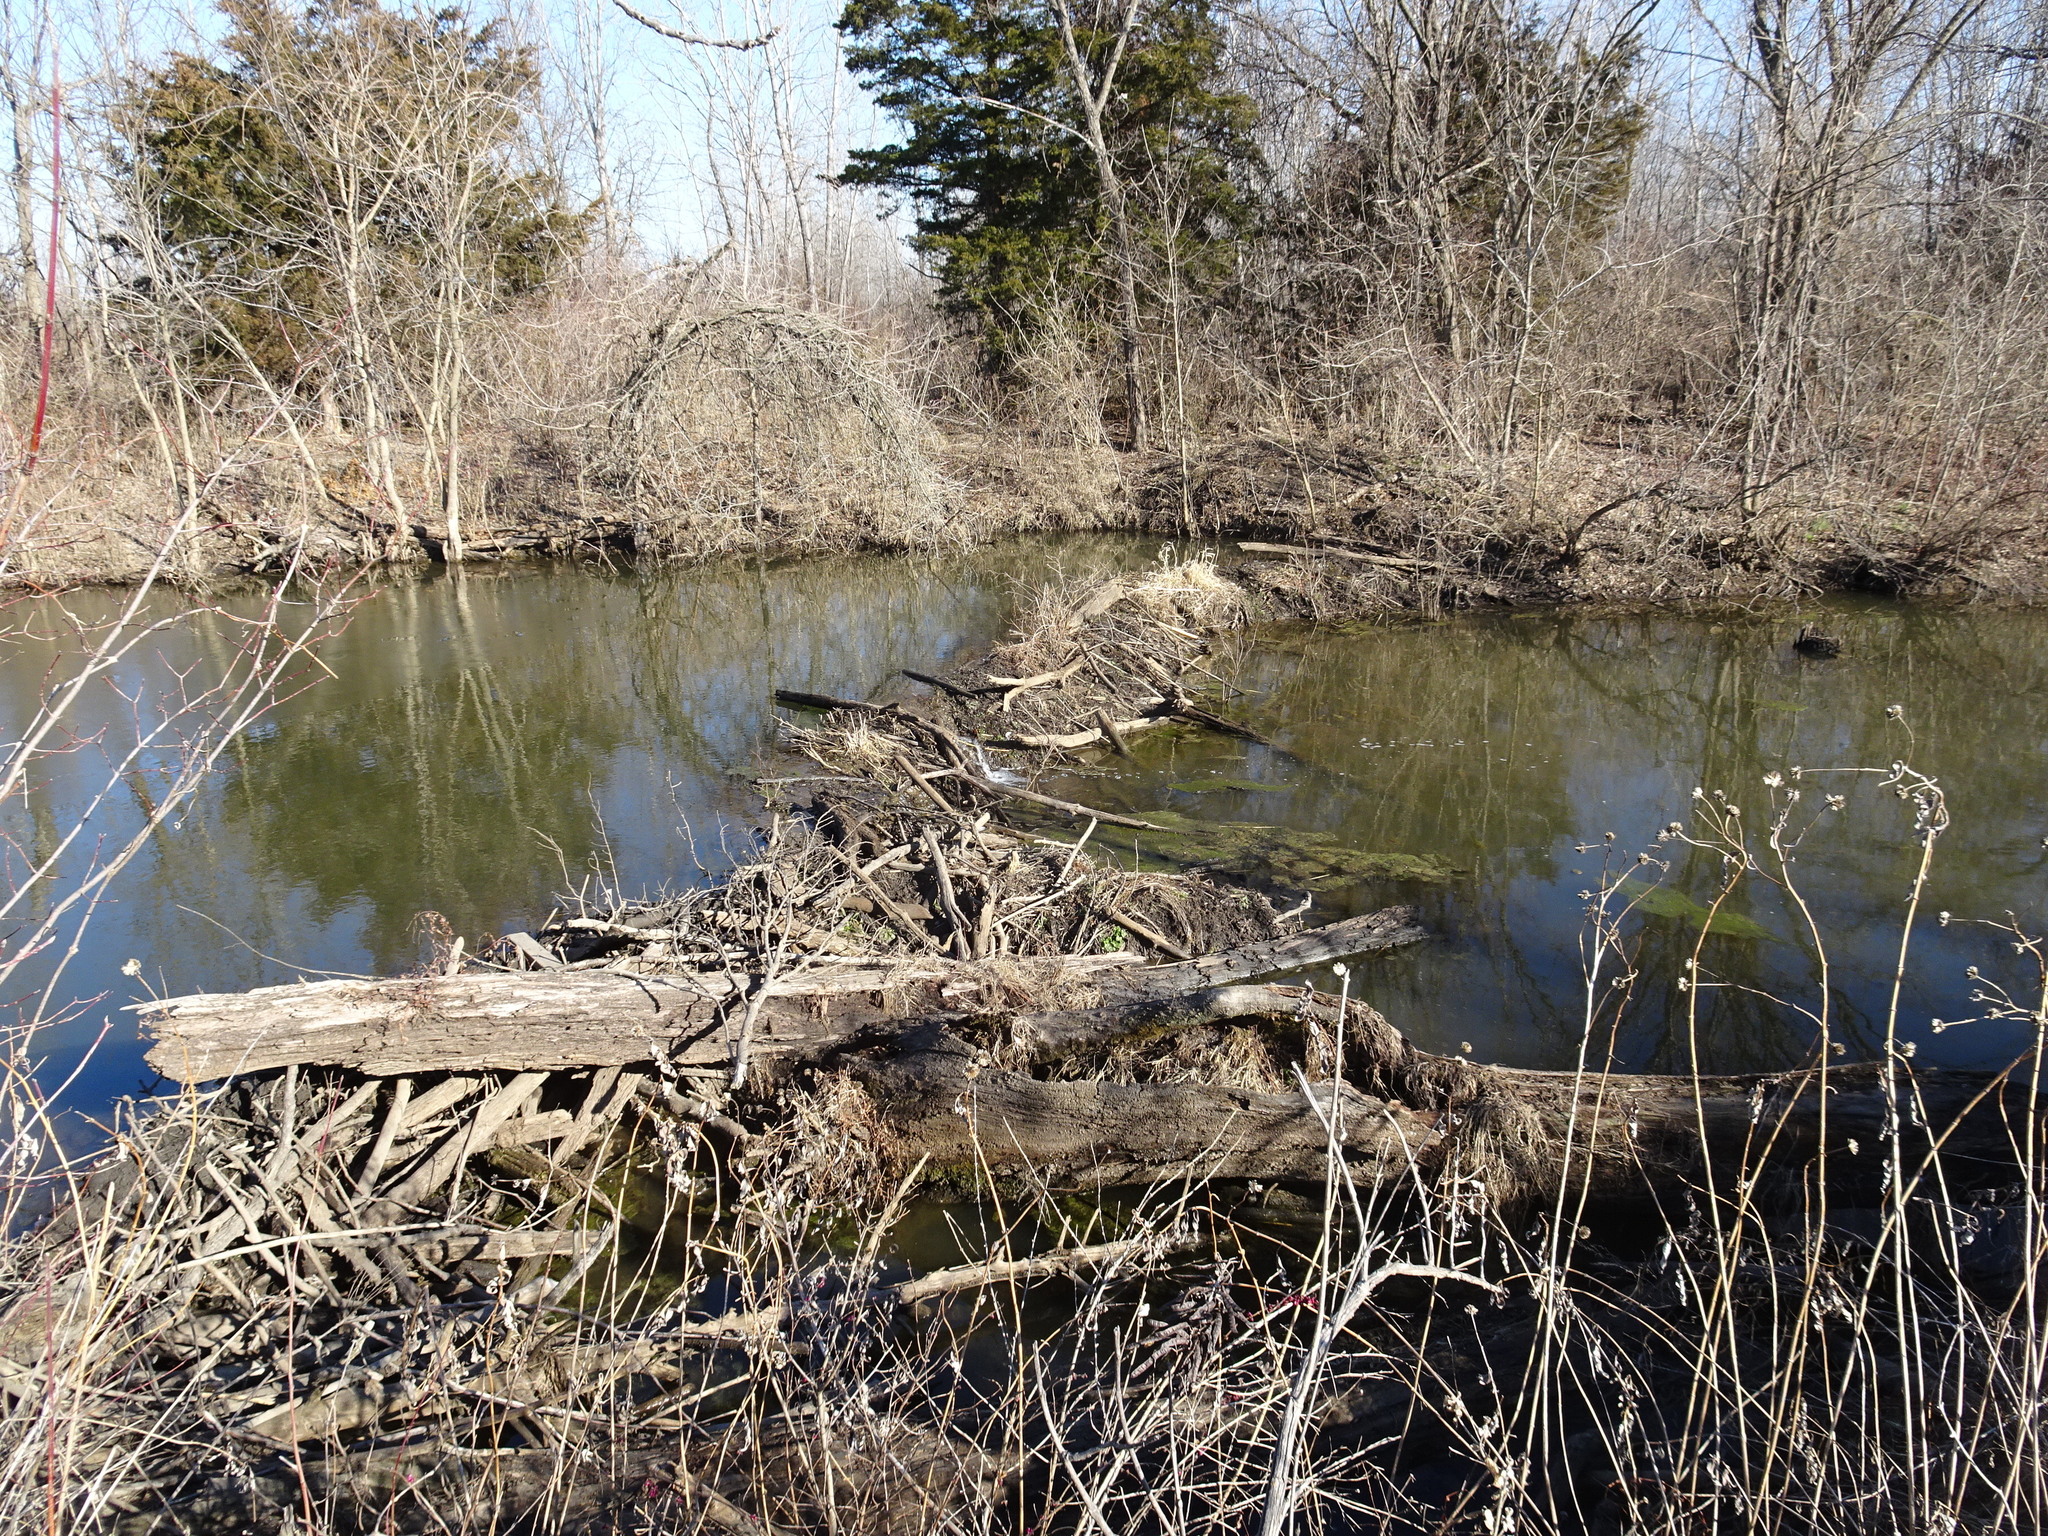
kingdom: Animalia
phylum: Chordata
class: Mammalia
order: Rodentia
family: Castoridae
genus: Castor
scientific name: Castor canadensis
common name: American beaver
